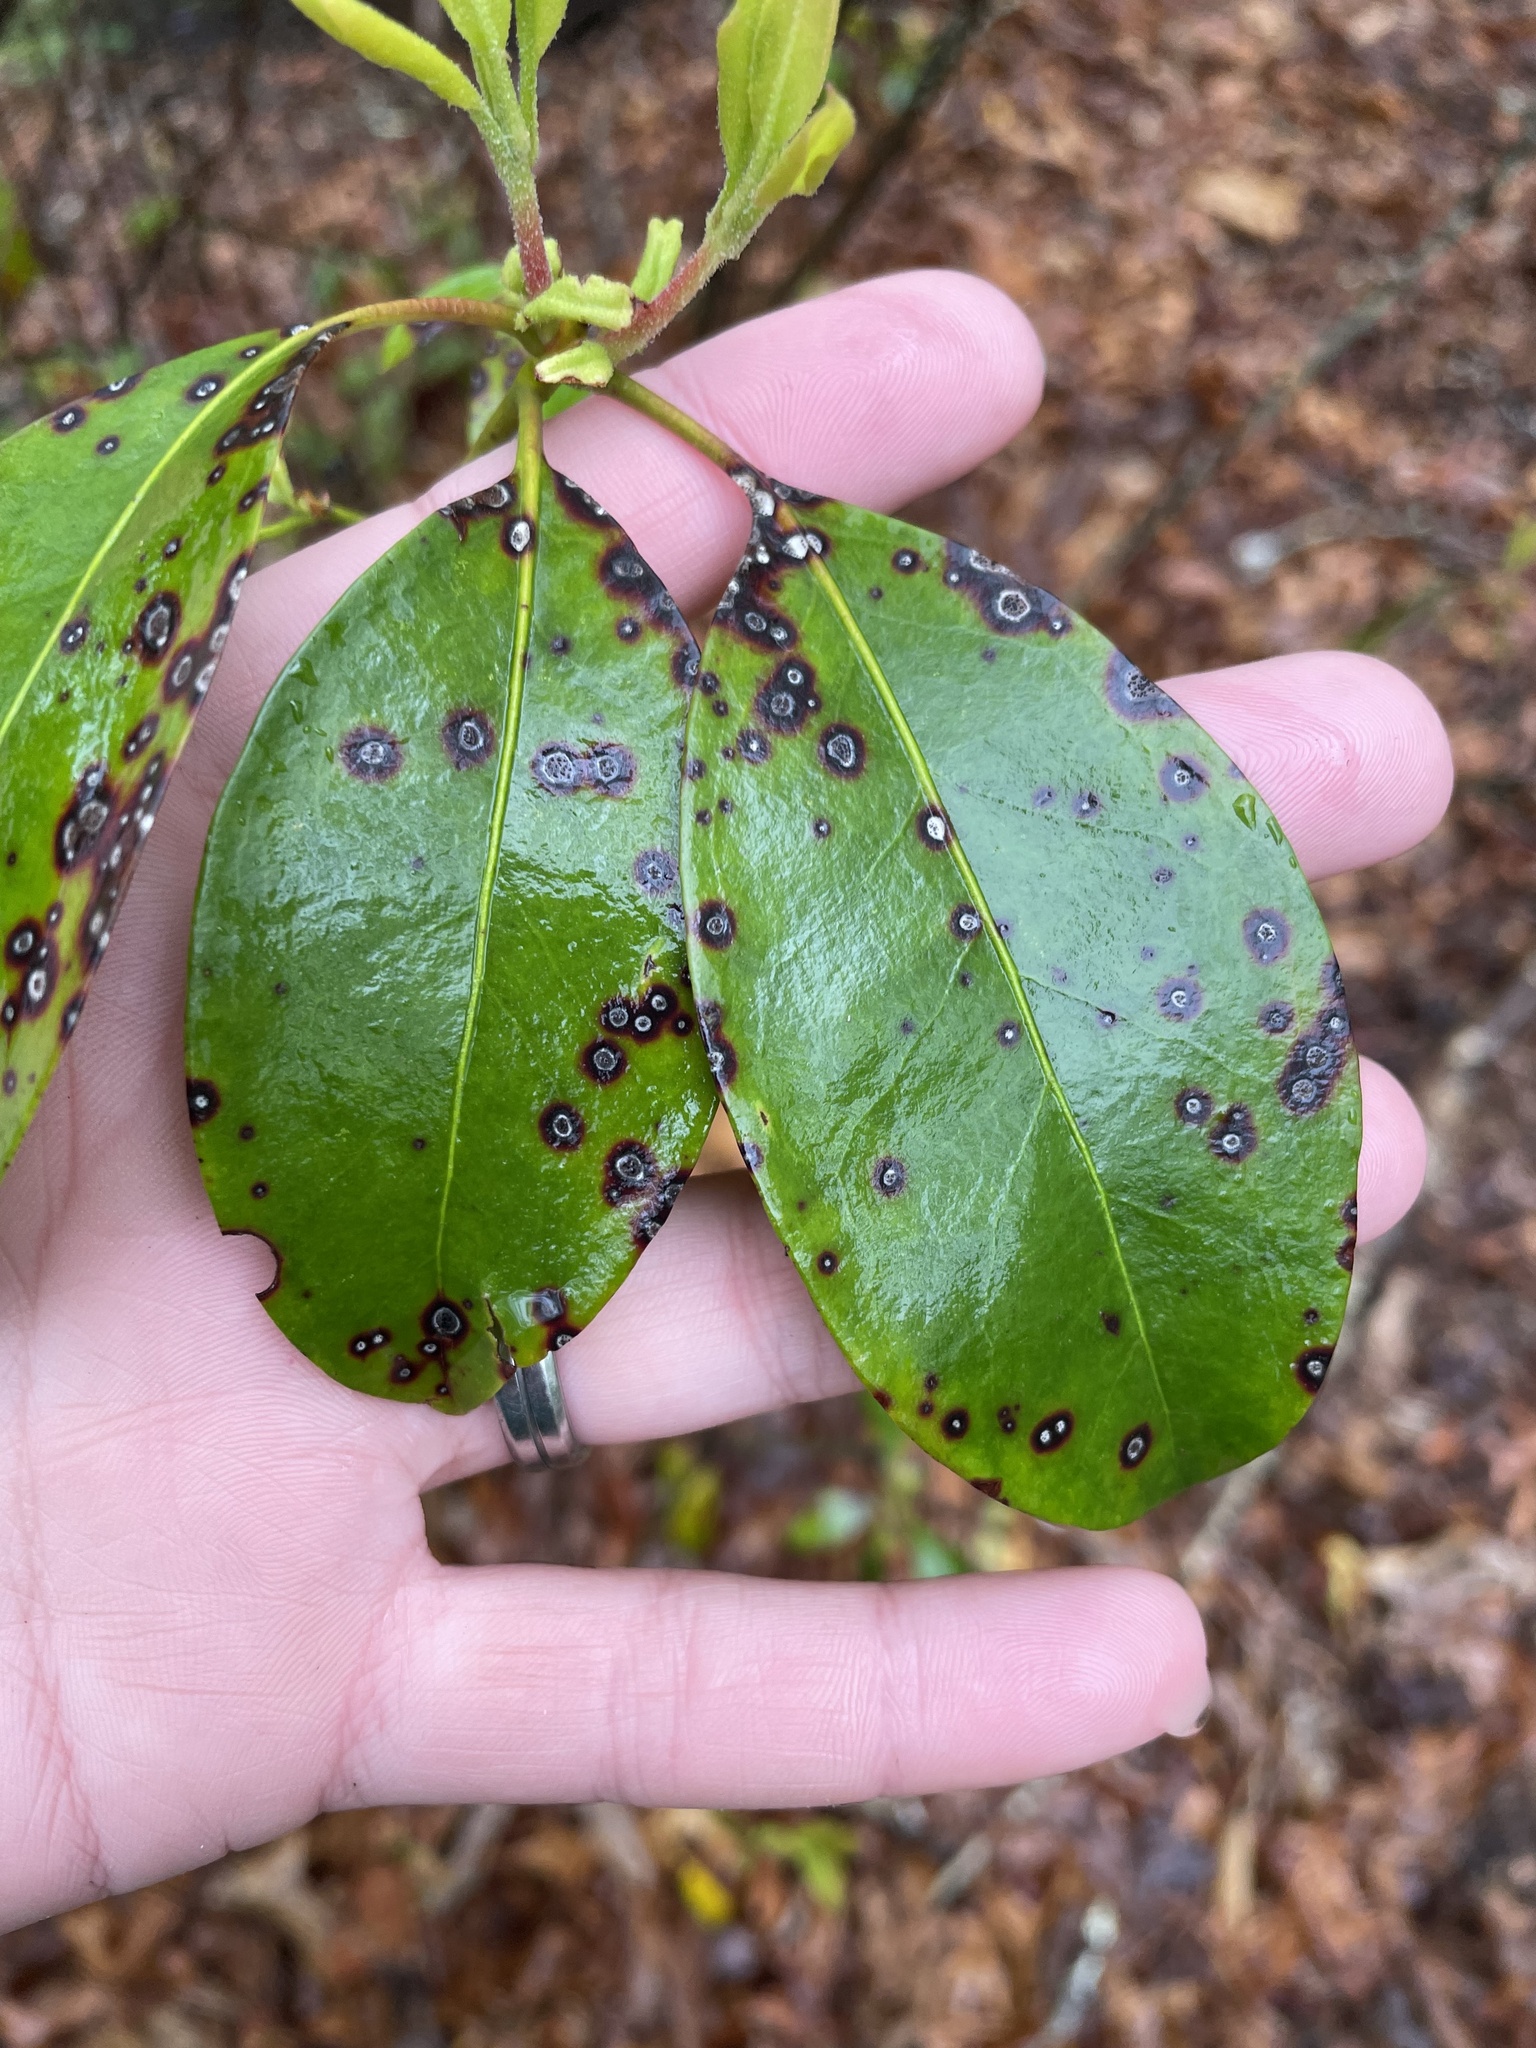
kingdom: Fungi
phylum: Ascomycota
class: Dothideomycetes
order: Mycosphaerellales
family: Mycosphaerellaceae
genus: Mycosphaerella
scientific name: Mycosphaerella colorata
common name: Mountain laurel leaf spot
